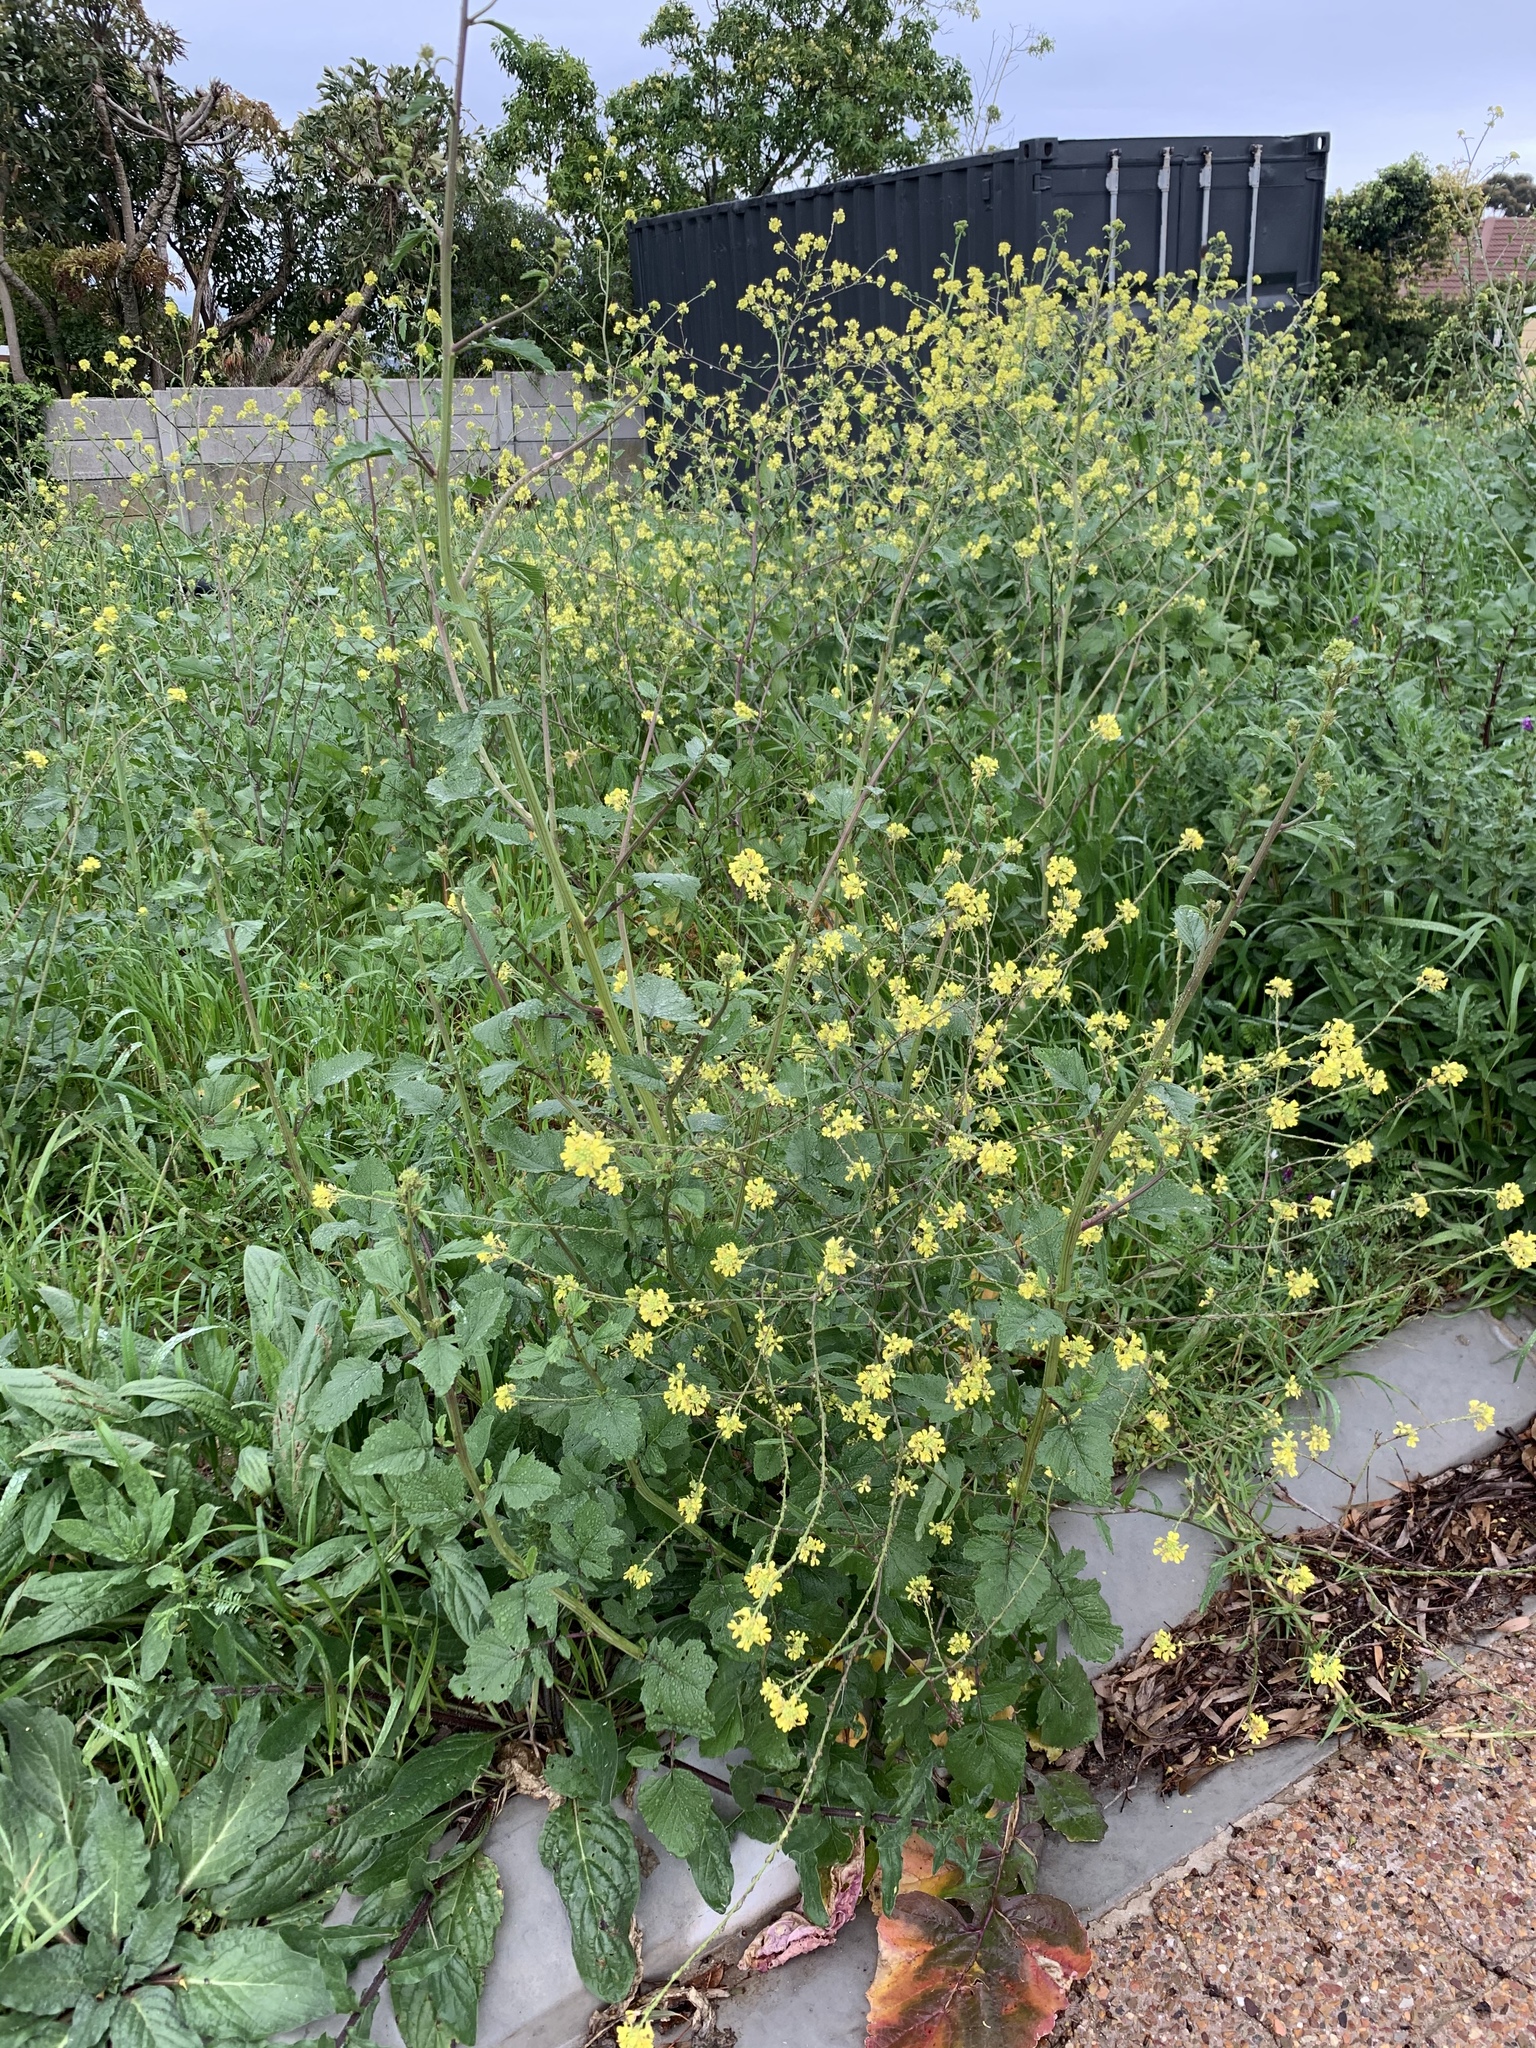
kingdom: Plantae
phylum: Tracheophyta
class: Magnoliopsida
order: Brassicales
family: Brassicaceae
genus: Rapistrum
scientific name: Rapistrum rugosum
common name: Annual bastardcabbage
